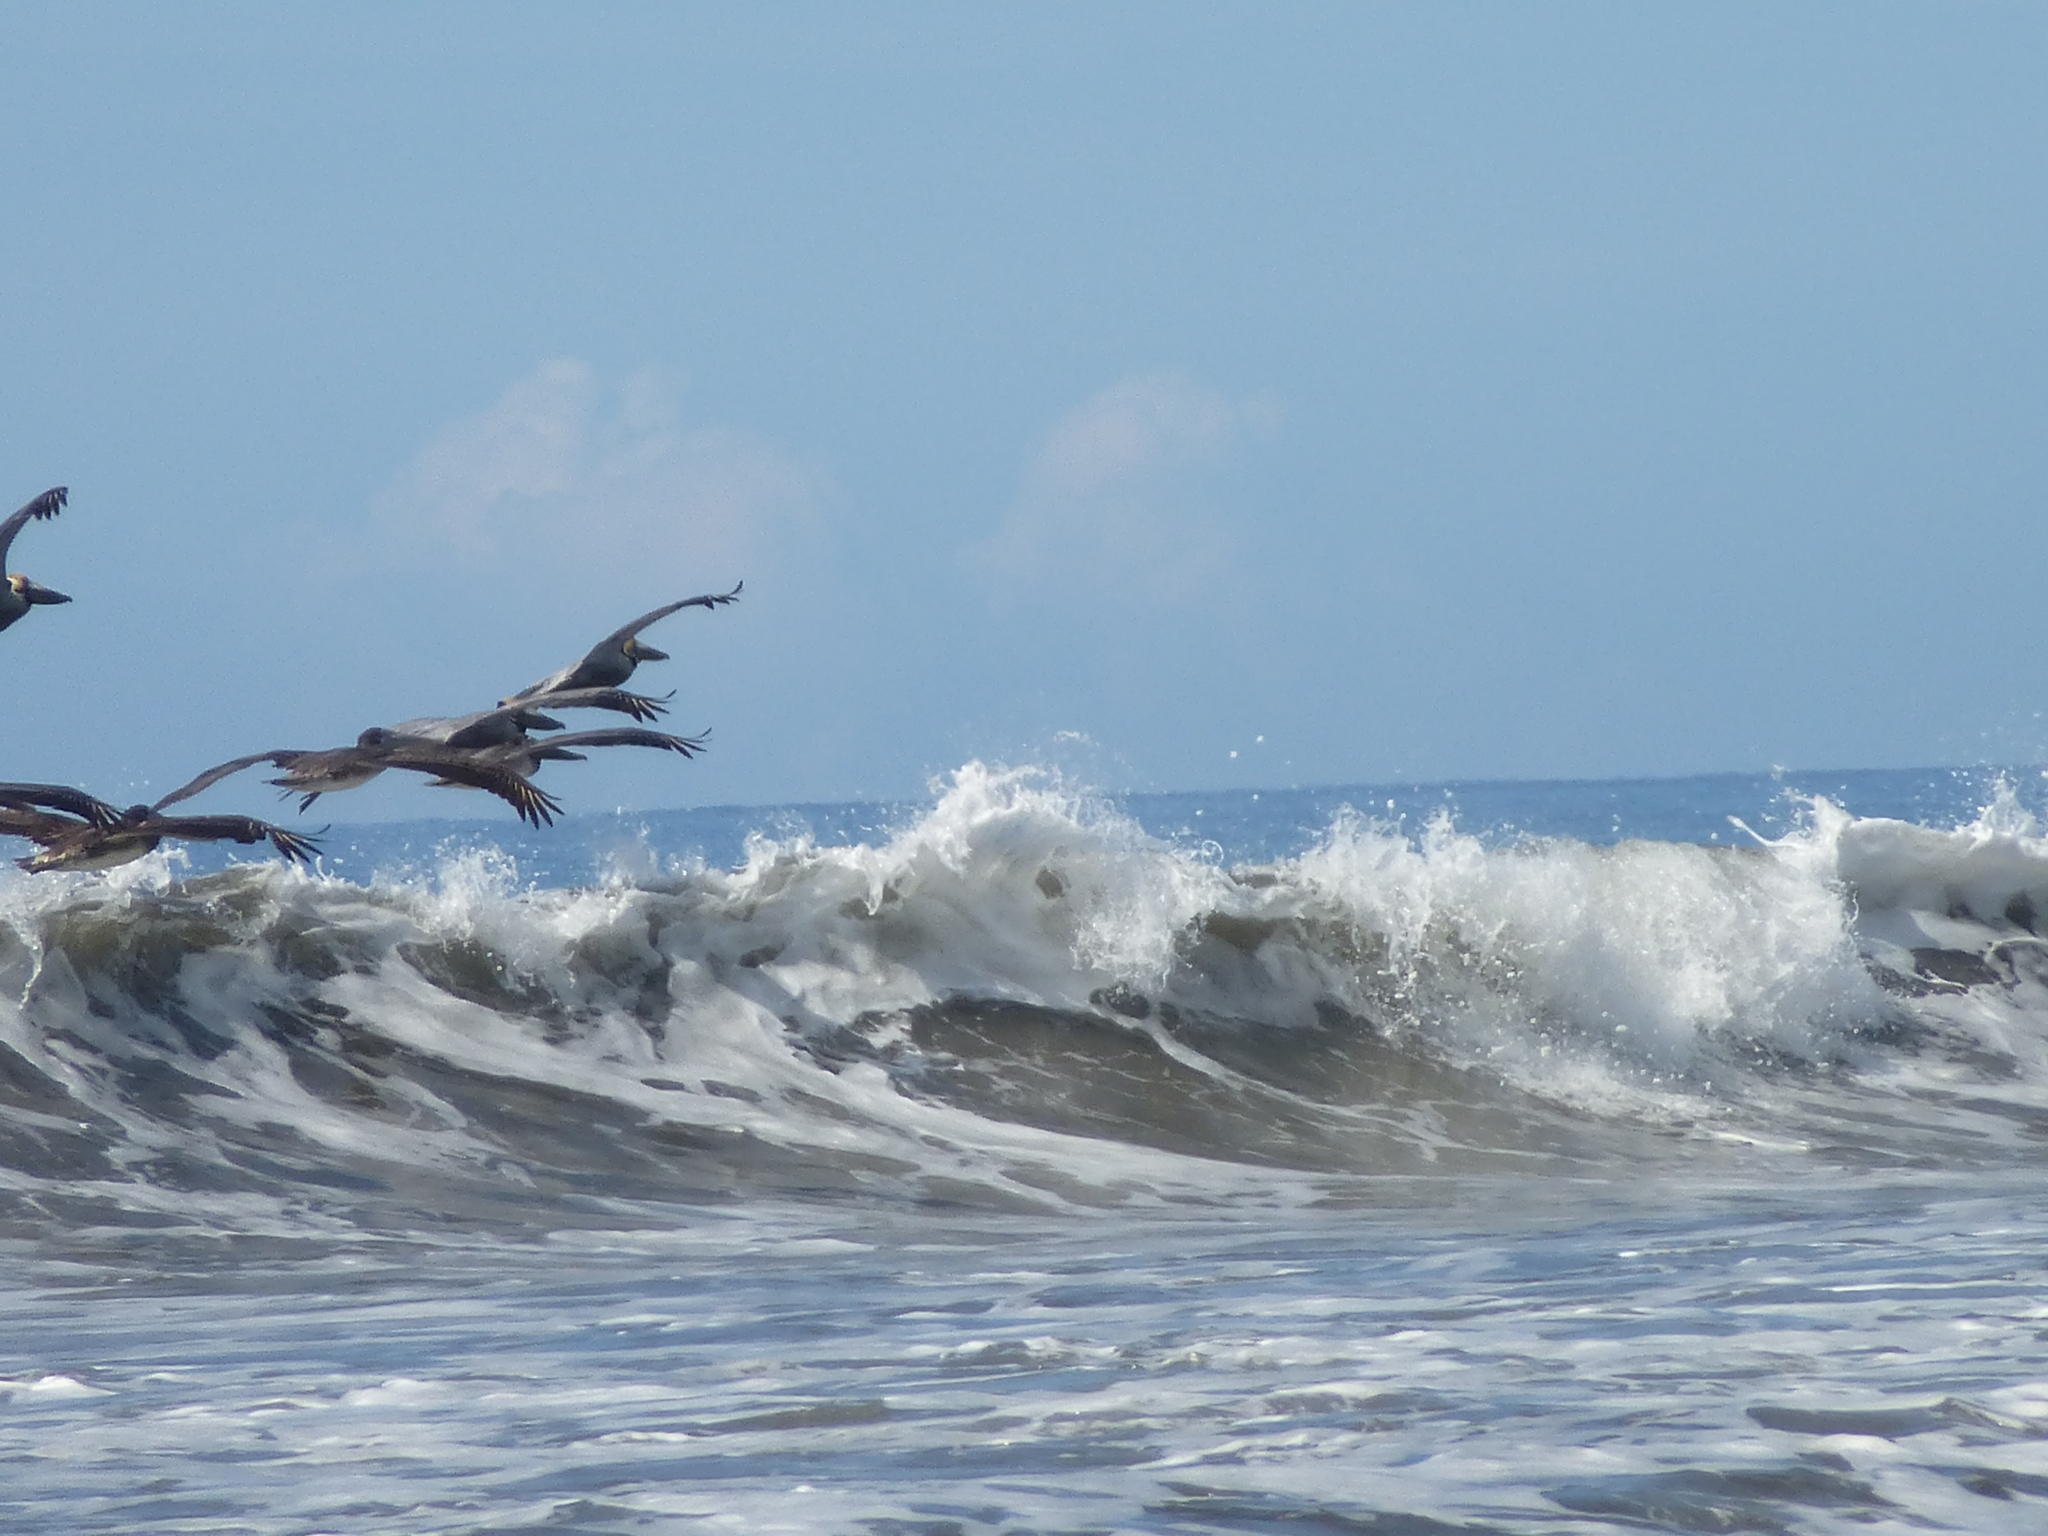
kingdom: Animalia
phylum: Chordata
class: Aves
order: Pelecaniformes
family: Pelecanidae
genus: Pelecanus
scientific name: Pelecanus occidentalis
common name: Brown pelican
